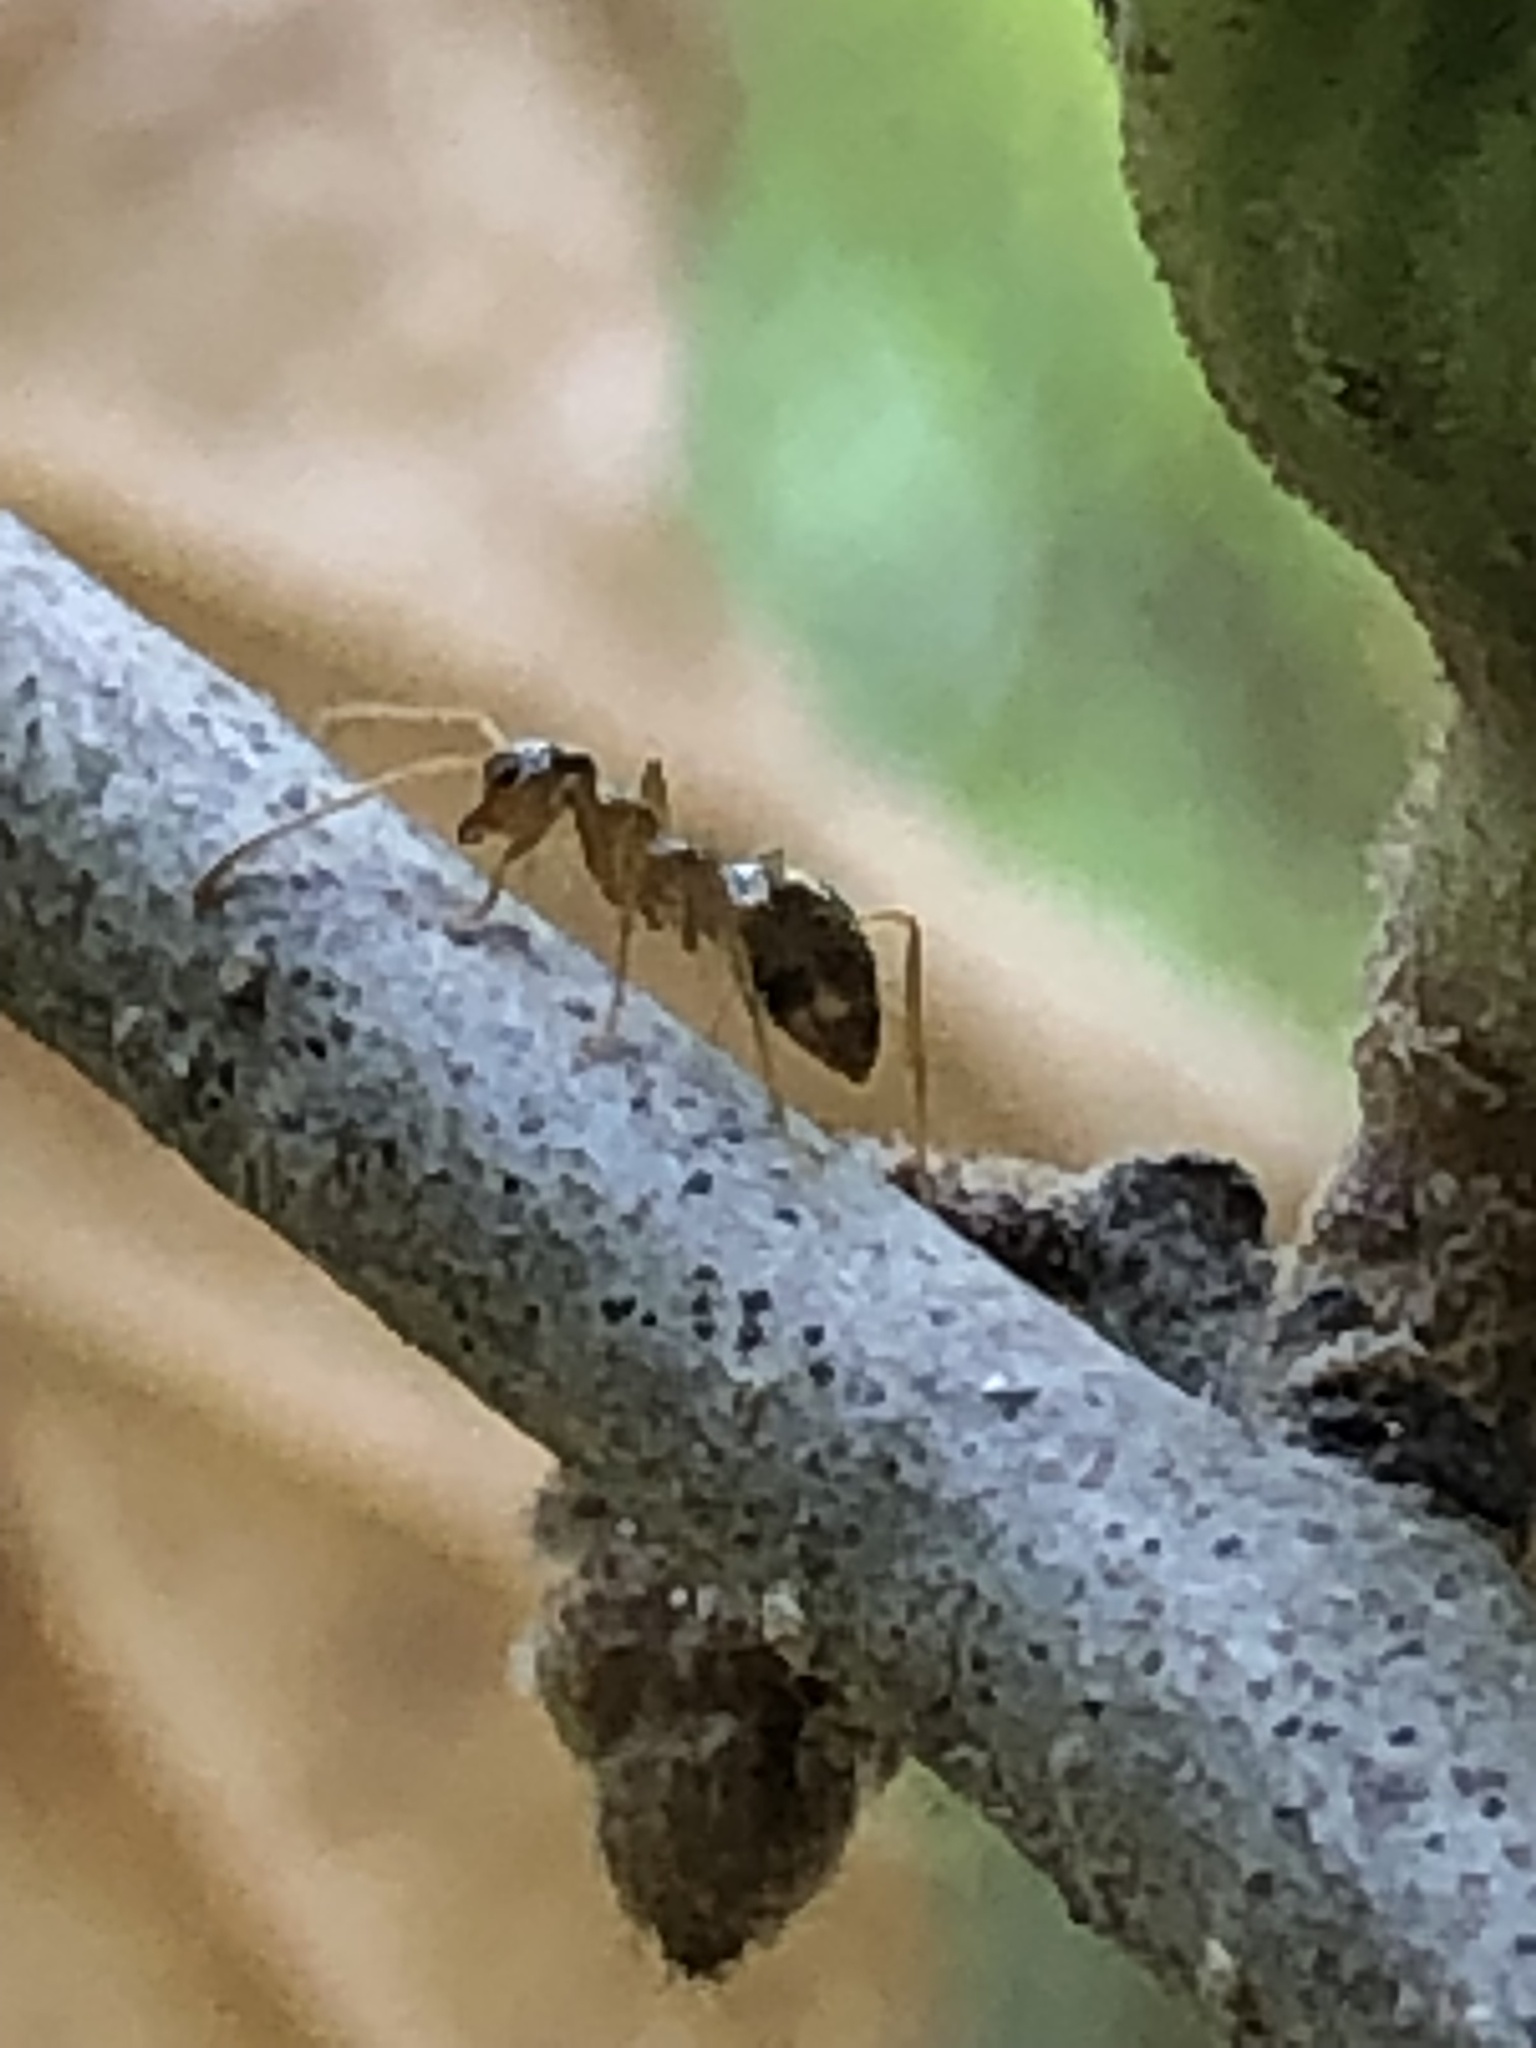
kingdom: Animalia
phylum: Arthropoda
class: Insecta
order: Hymenoptera
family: Formicidae
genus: Prenolepis
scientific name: Prenolepis imparis
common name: Small honey ant
